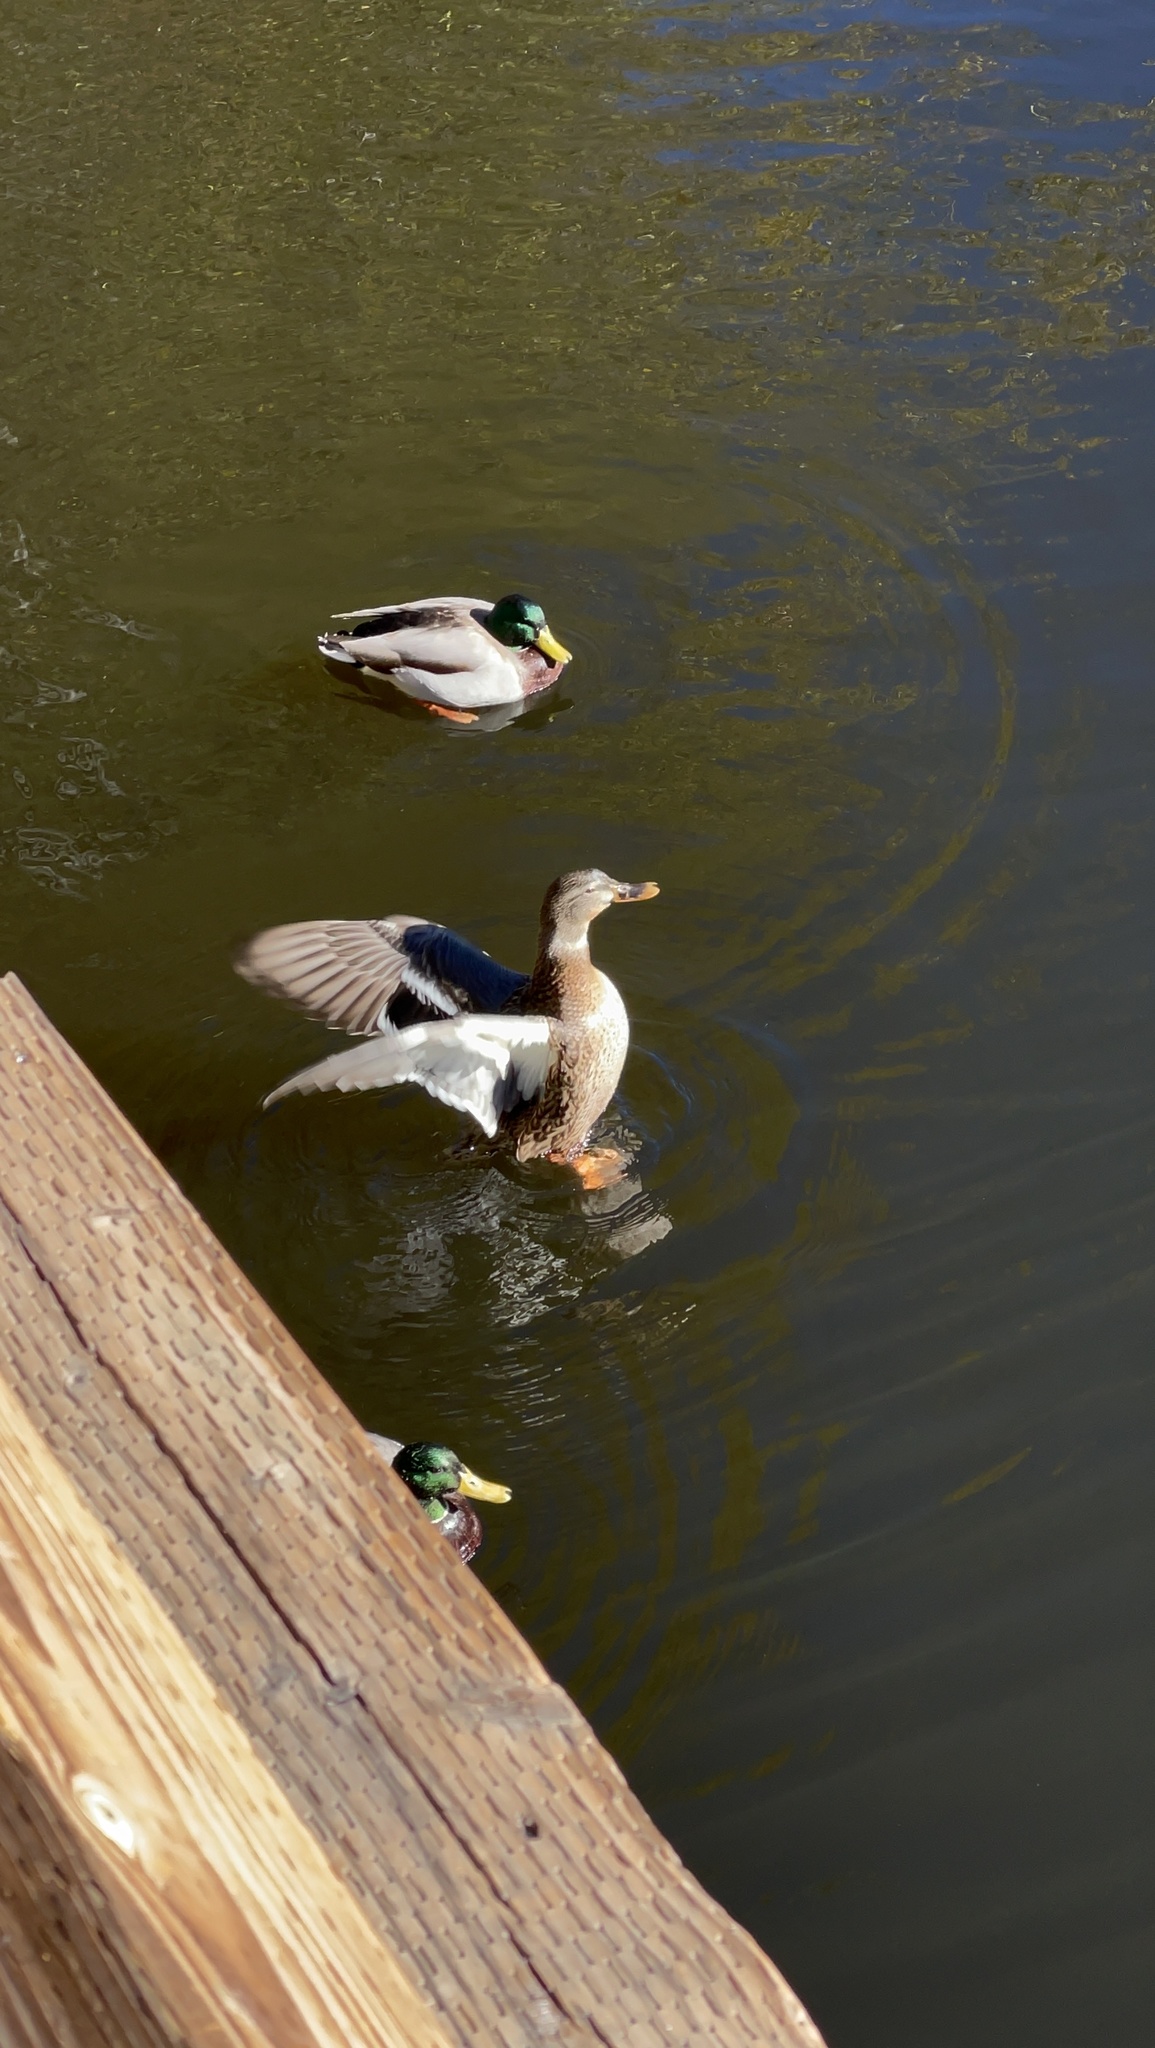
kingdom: Animalia
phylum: Chordata
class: Aves
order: Anseriformes
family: Anatidae
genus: Anas
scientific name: Anas platyrhynchos
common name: Mallard
